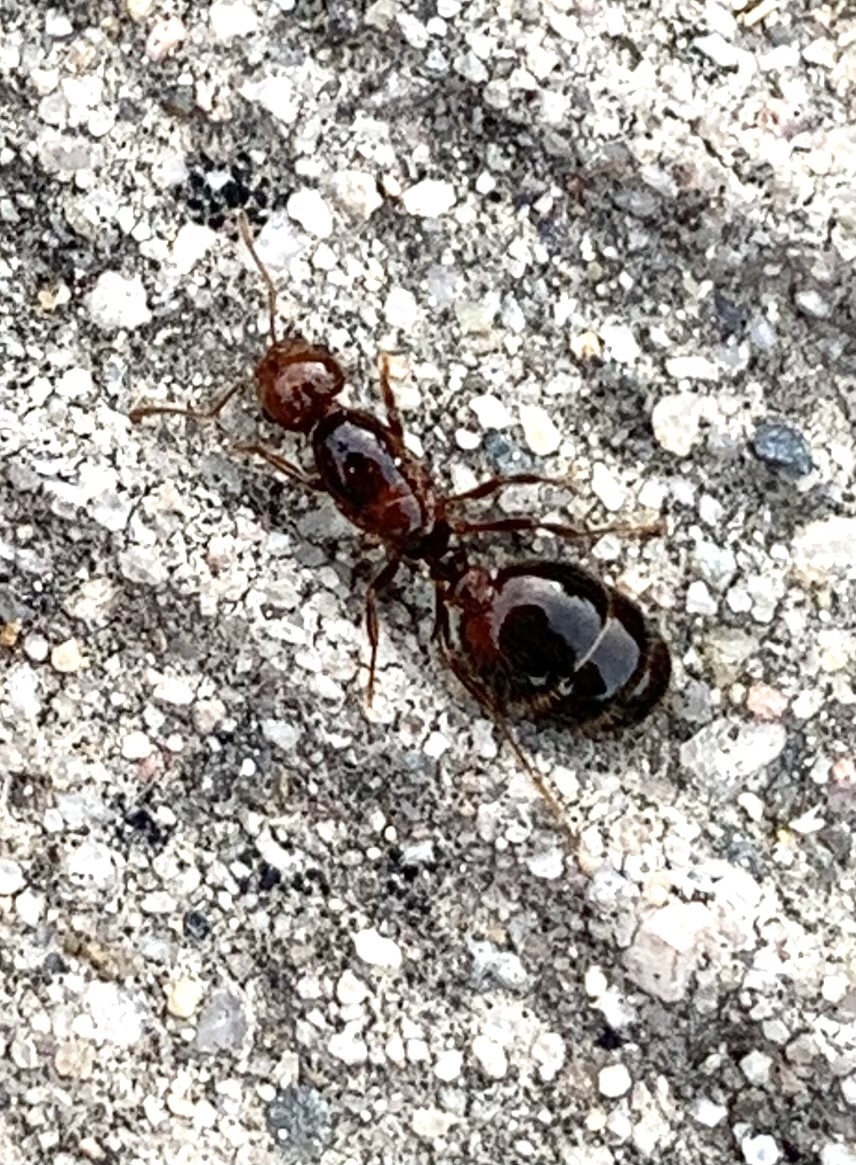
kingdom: Animalia
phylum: Arthropoda
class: Insecta
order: Hymenoptera
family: Formicidae
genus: Solenopsis
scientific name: Solenopsis invicta
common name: Red imported fire ant
